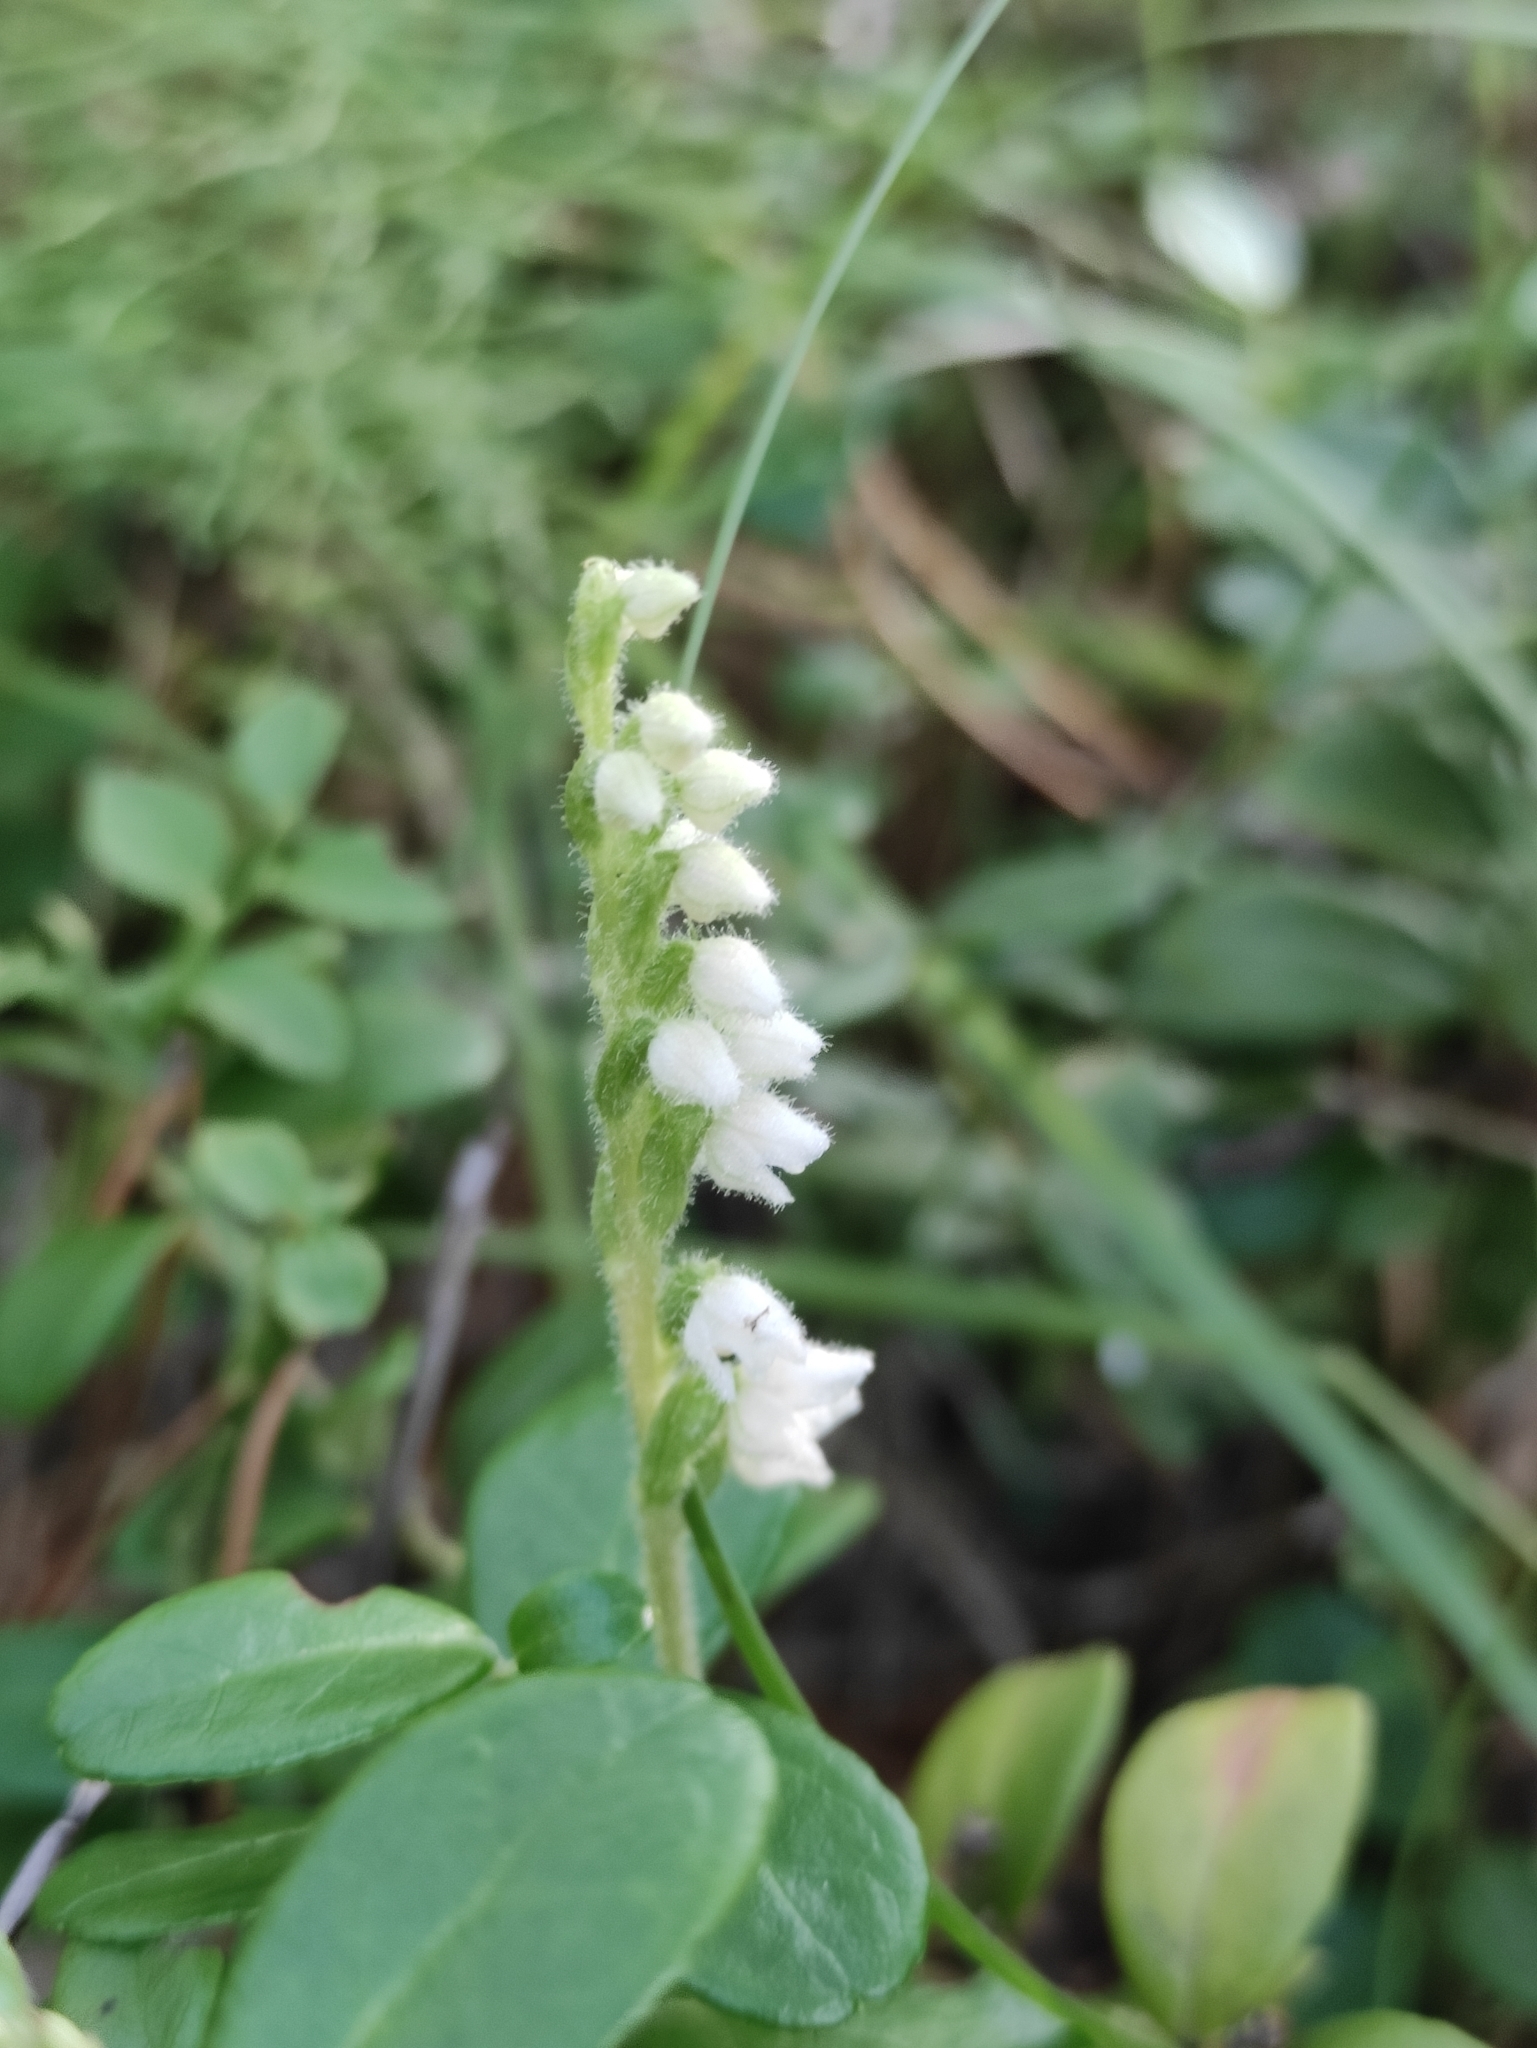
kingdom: Plantae
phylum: Tracheophyta
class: Liliopsida
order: Asparagales
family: Orchidaceae
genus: Goodyera
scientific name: Goodyera repens
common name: Creeping lady's-tresses
